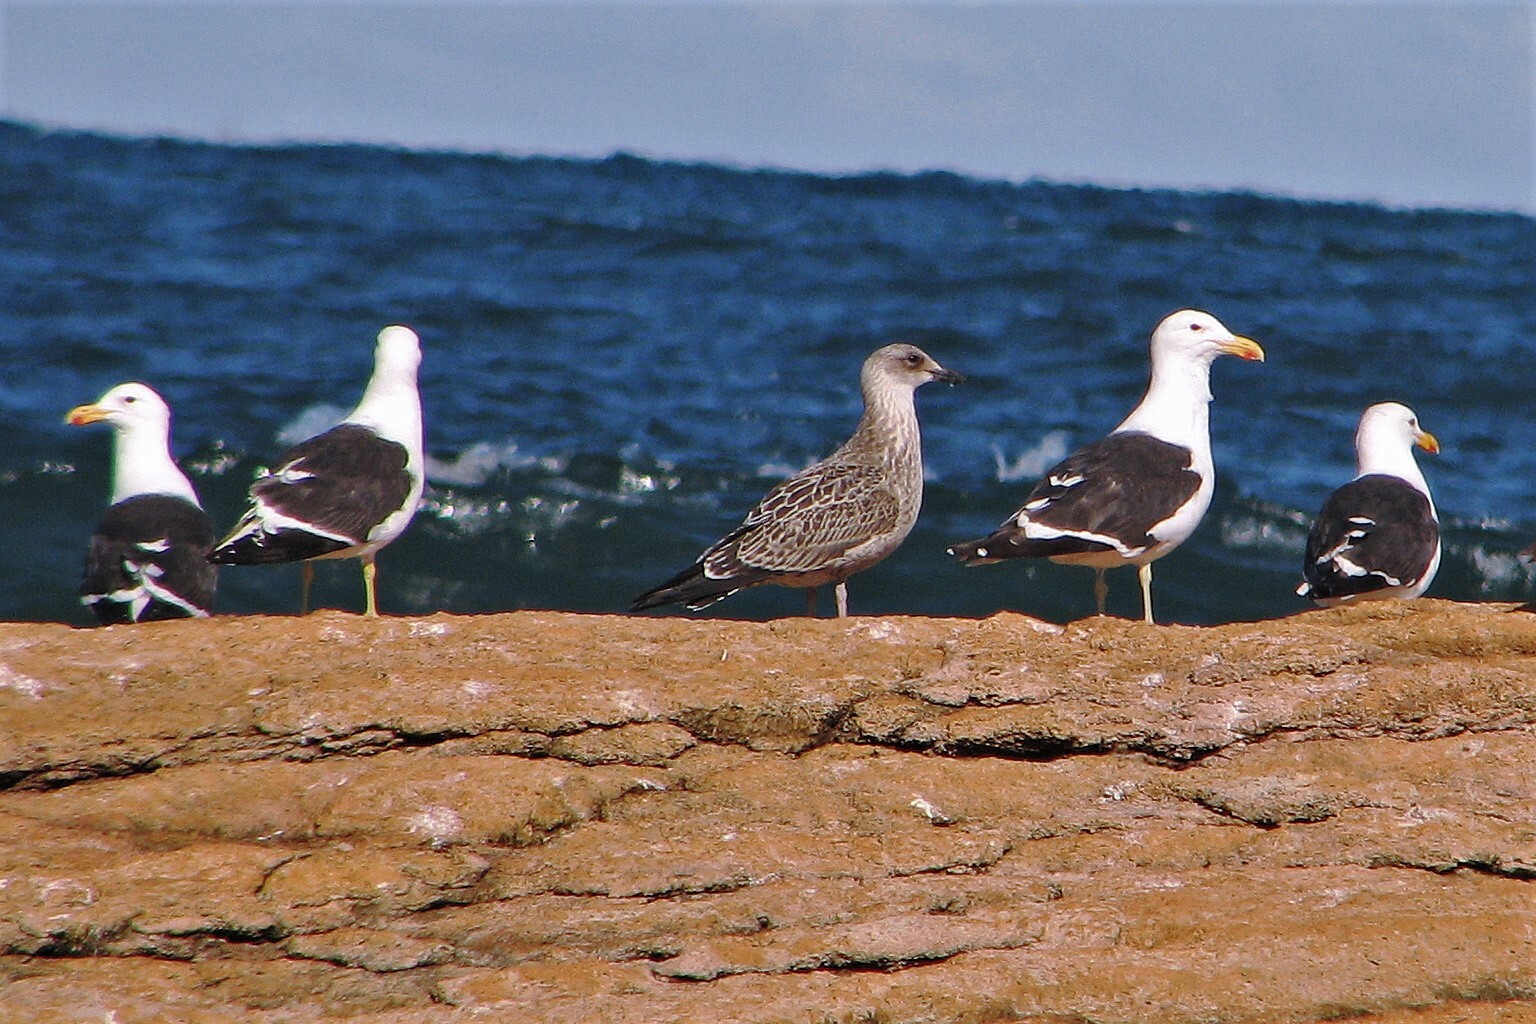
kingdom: Animalia
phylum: Chordata
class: Aves
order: Charadriiformes
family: Laridae
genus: Larus
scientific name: Larus dominicanus
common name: Kelp gull
